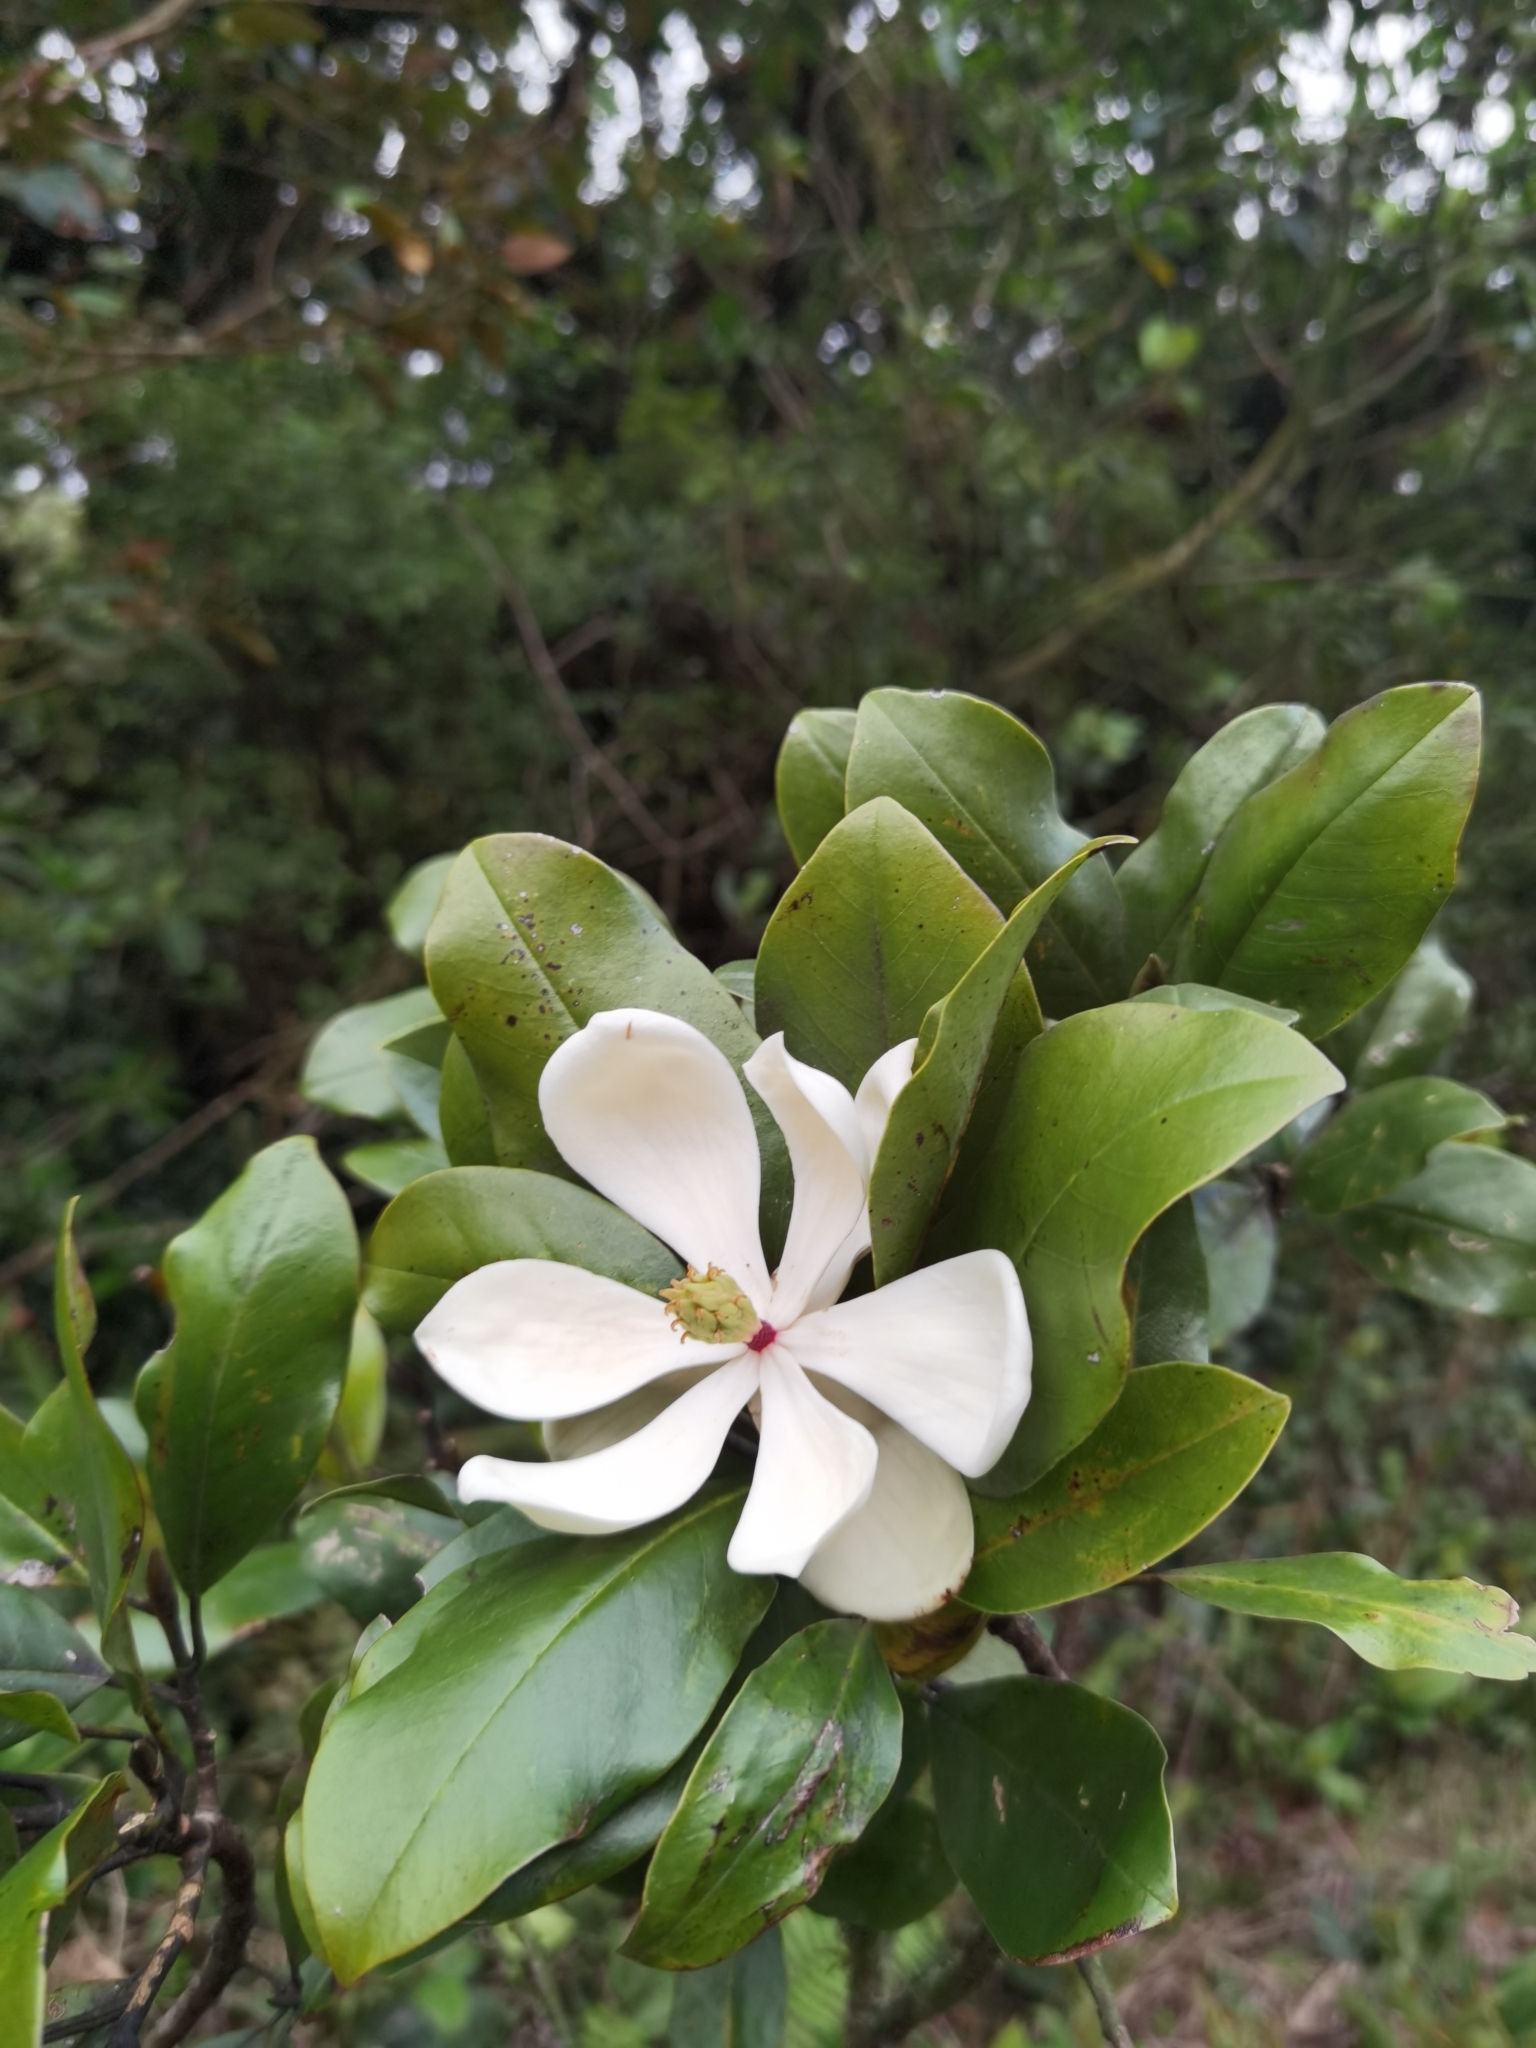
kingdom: Plantae
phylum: Tracheophyta
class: Magnoliopsida
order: Magnoliales
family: Magnoliaceae
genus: Magnolia
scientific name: Magnolia poasana
